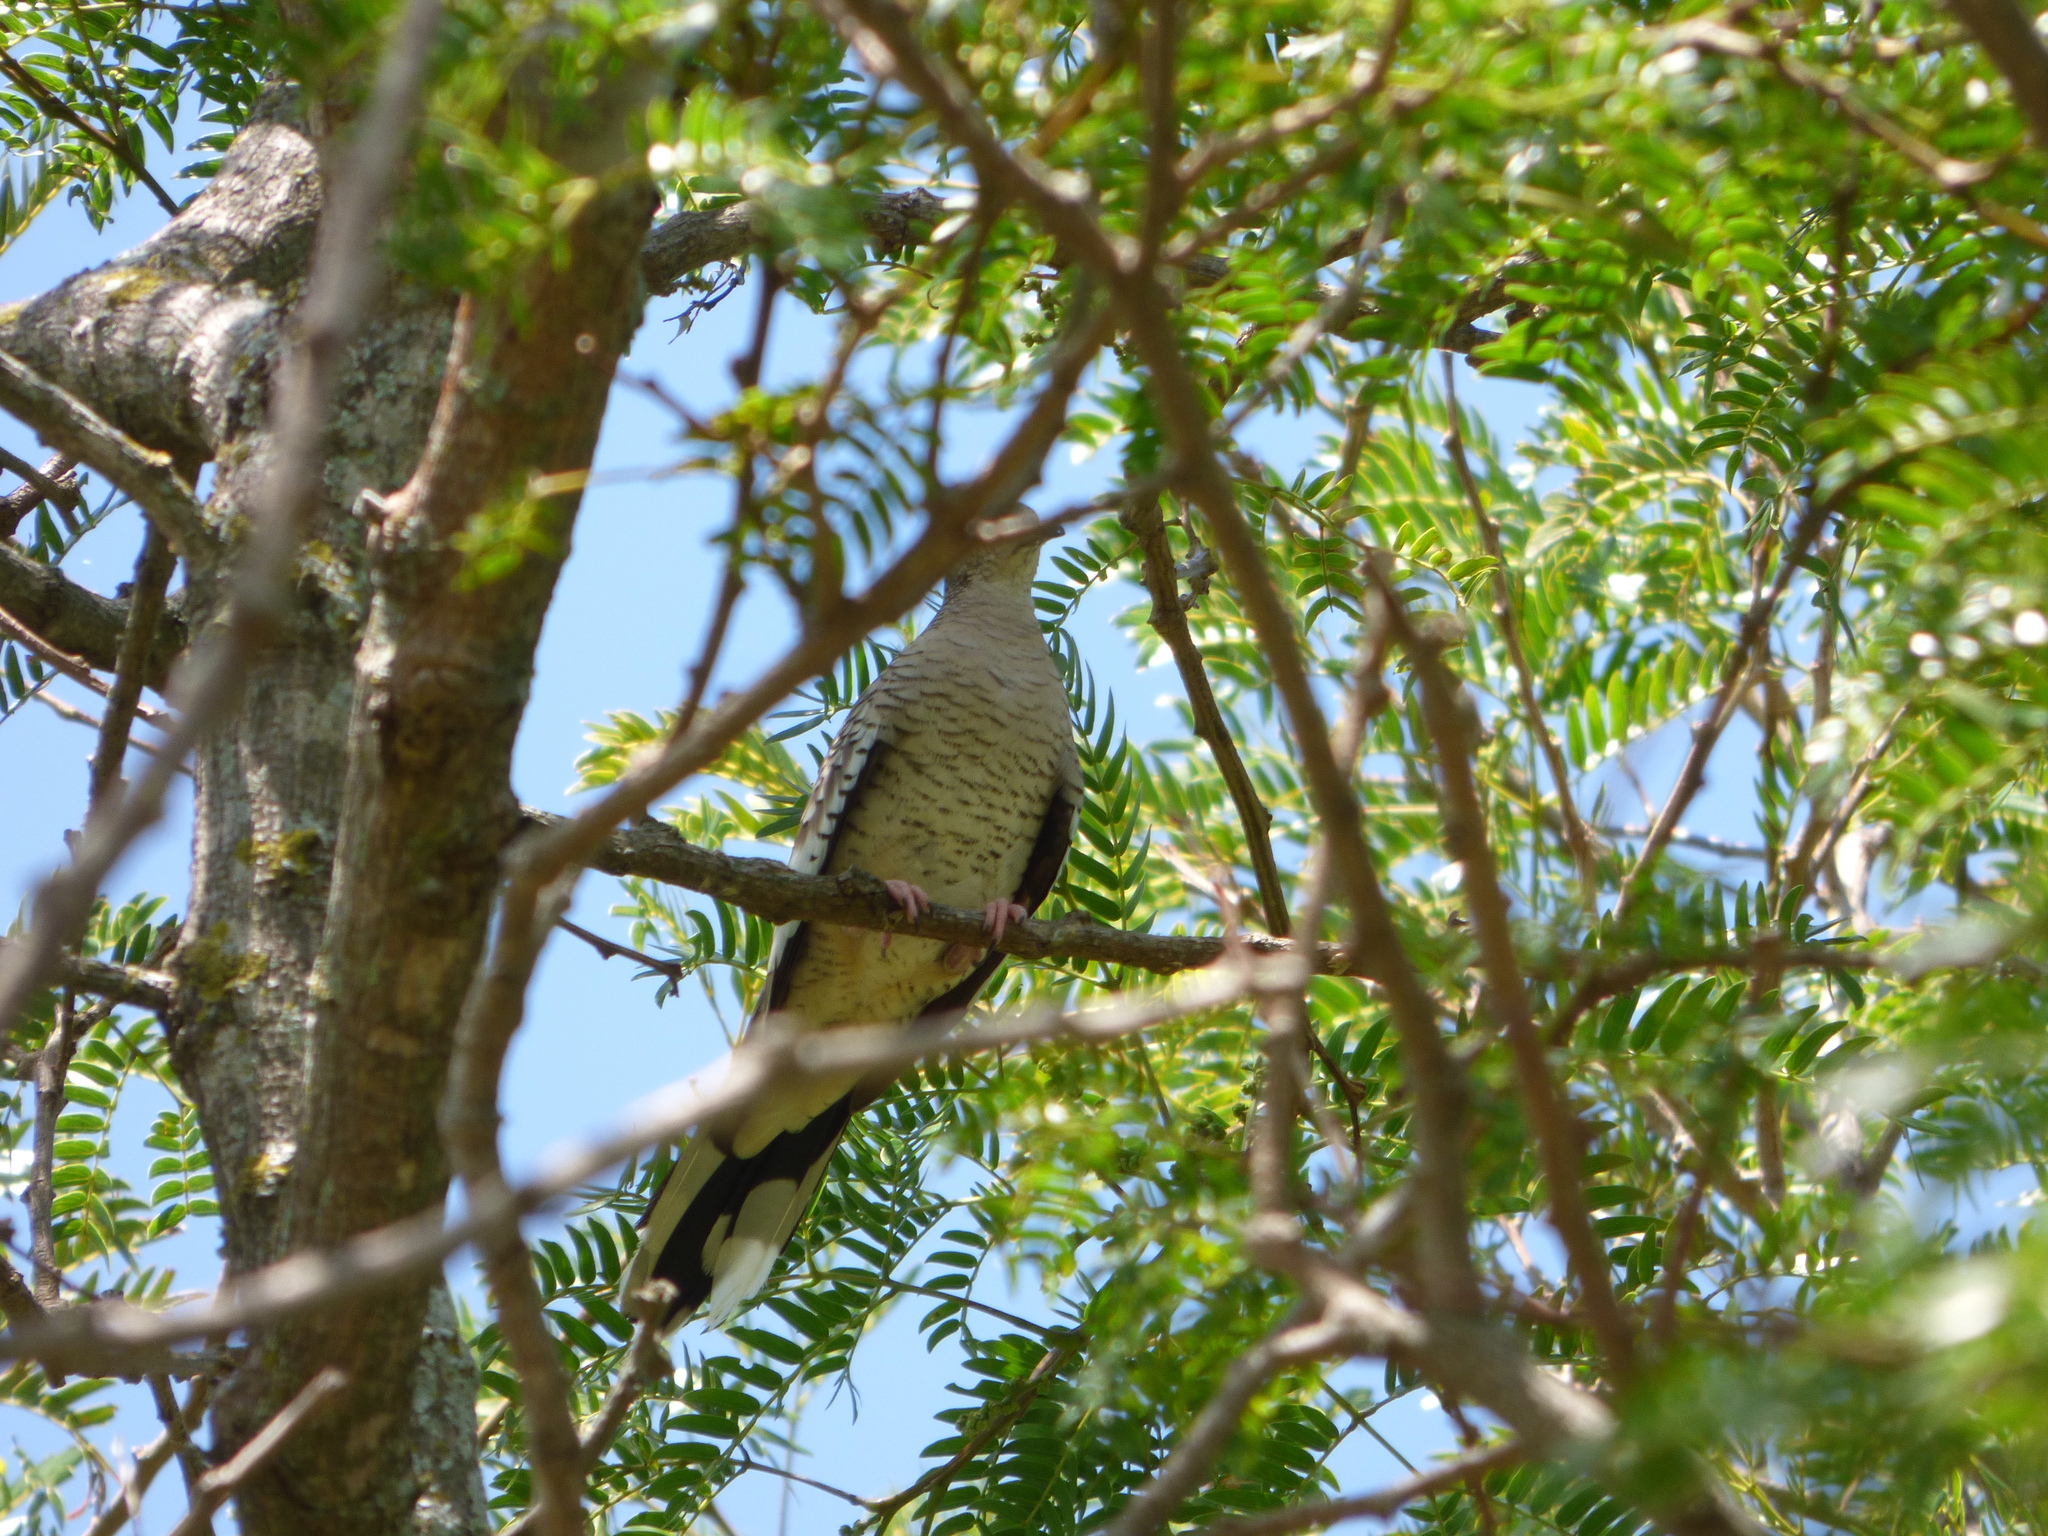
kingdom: Animalia
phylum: Chordata
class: Aves
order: Columbiformes
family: Columbidae
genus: Columbina
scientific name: Columbina squammata
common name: Scaled dove
